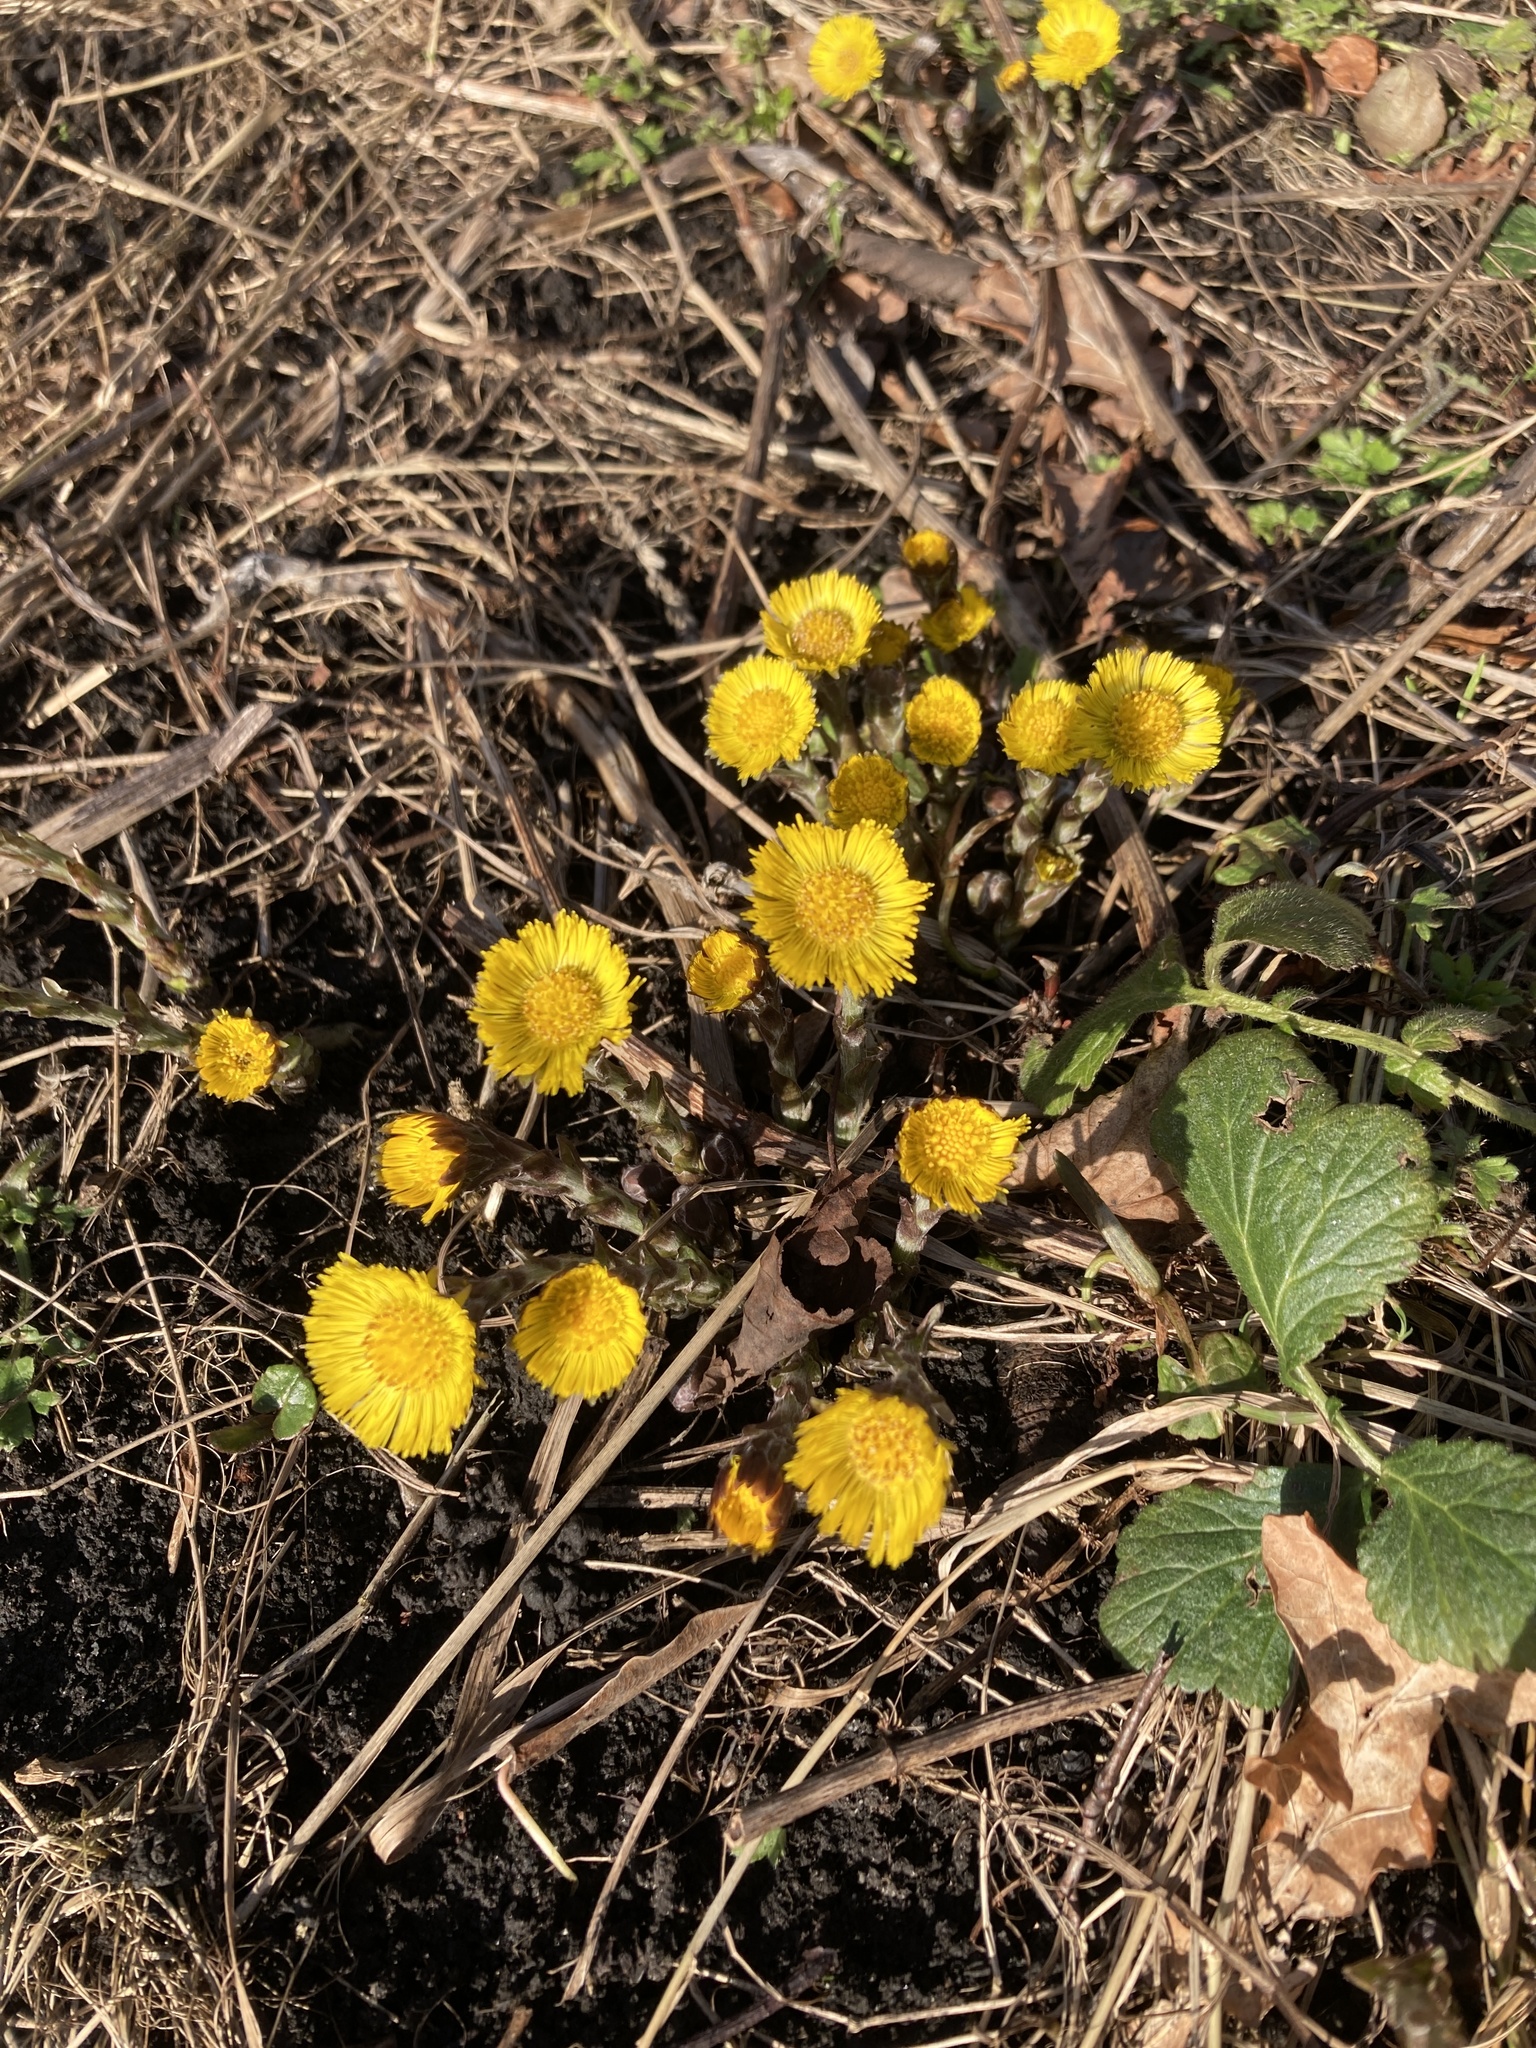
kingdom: Plantae
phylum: Tracheophyta
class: Magnoliopsida
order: Asterales
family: Asteraceae
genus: Tussilago
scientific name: Tussilago farfara
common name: Coltsfoot
